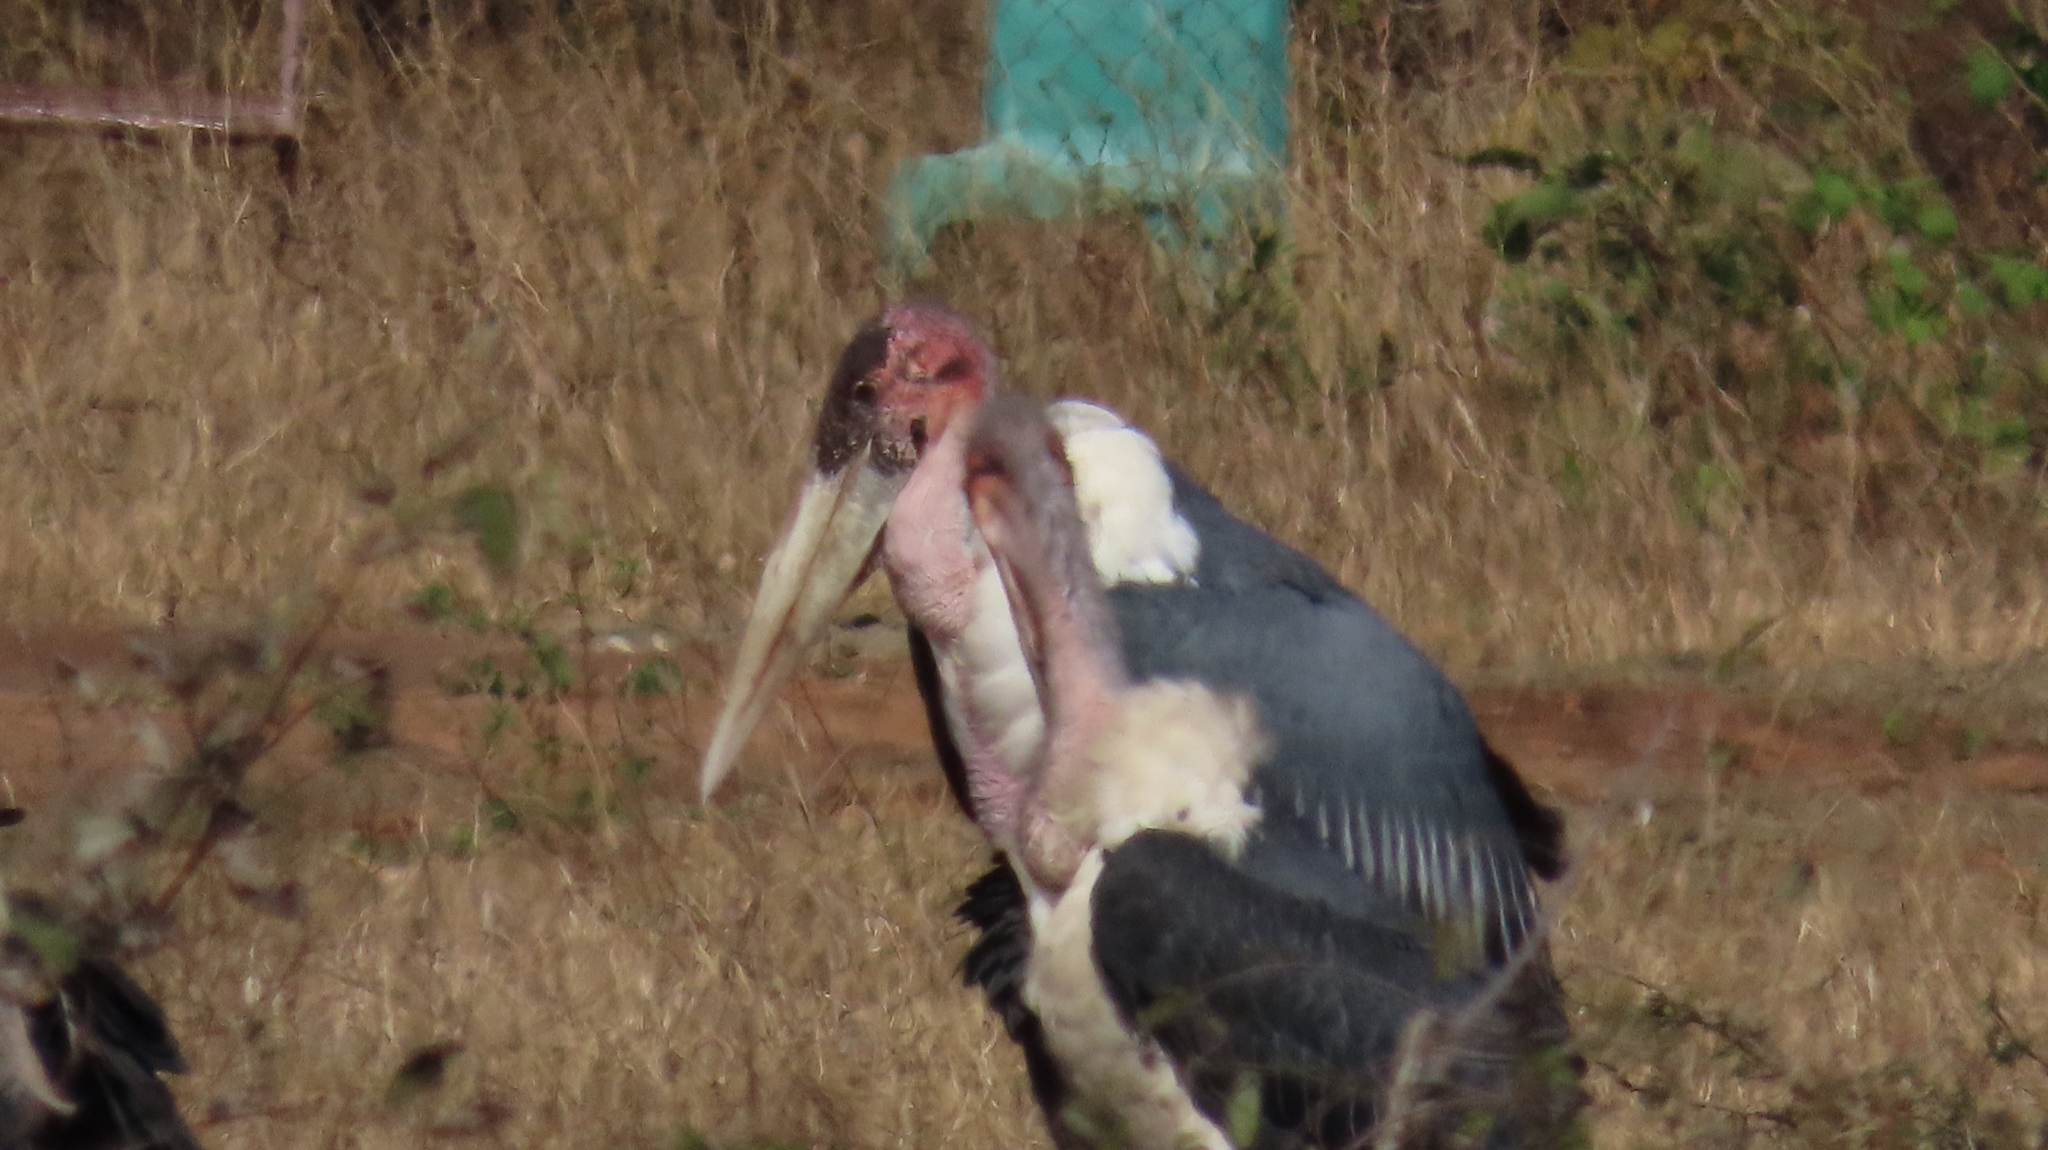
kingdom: Animalia
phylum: Chordata
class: Aves
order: Ciconiiformes
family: Ciconiidae
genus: Leptoptilos
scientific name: Leptoptilos crumenifer
